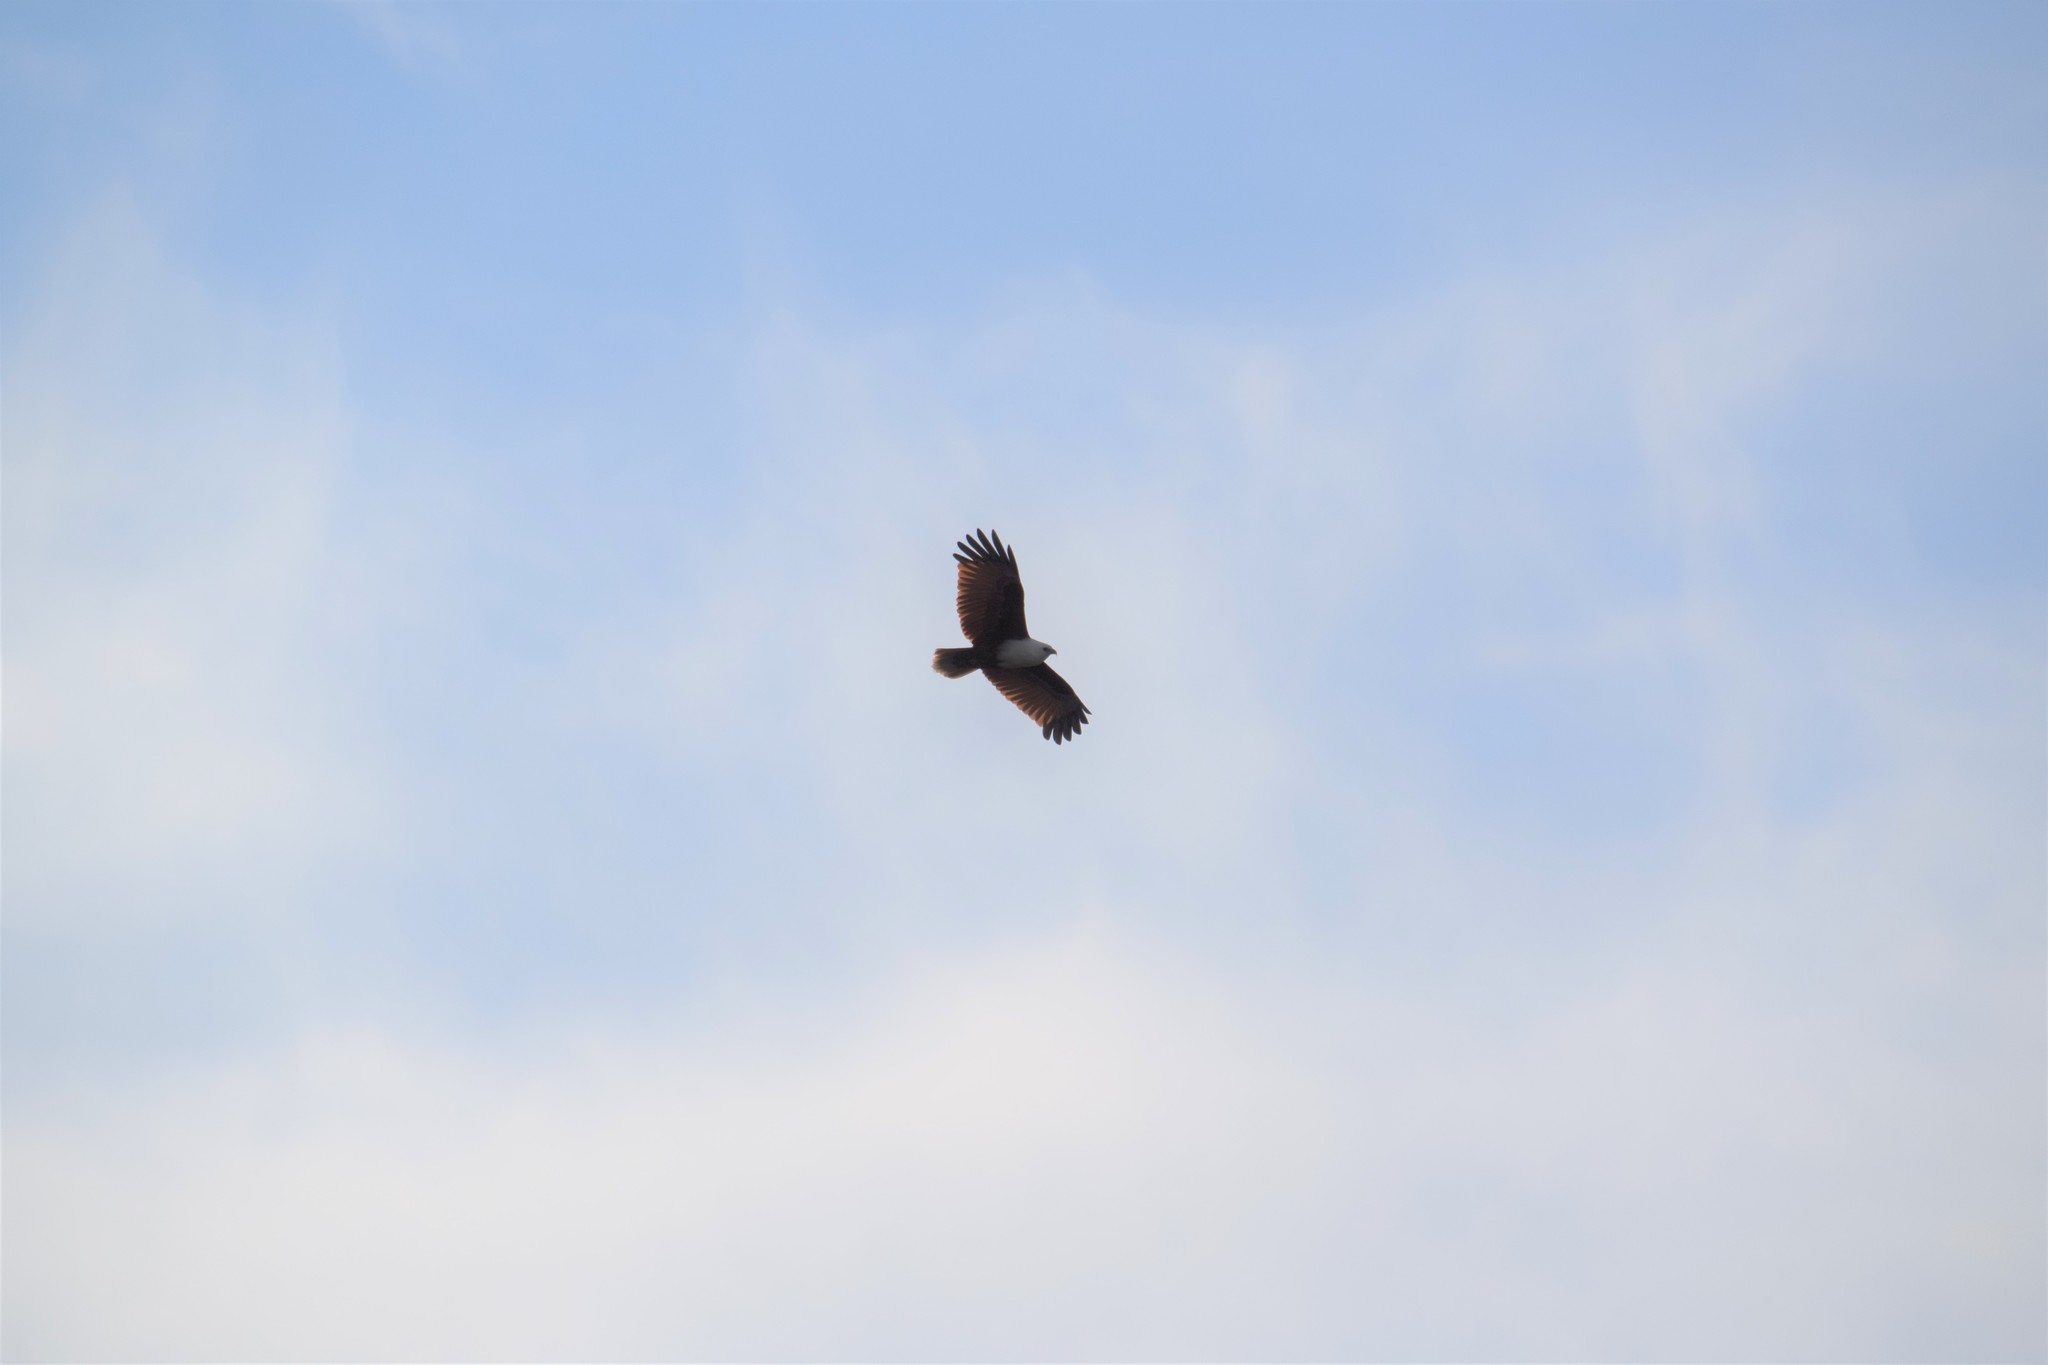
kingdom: Animalia
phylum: Chordata
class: Aves
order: Accipitriformes
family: Accipitridae
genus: Haliastur
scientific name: Haliastur indus
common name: Brahminy kite
